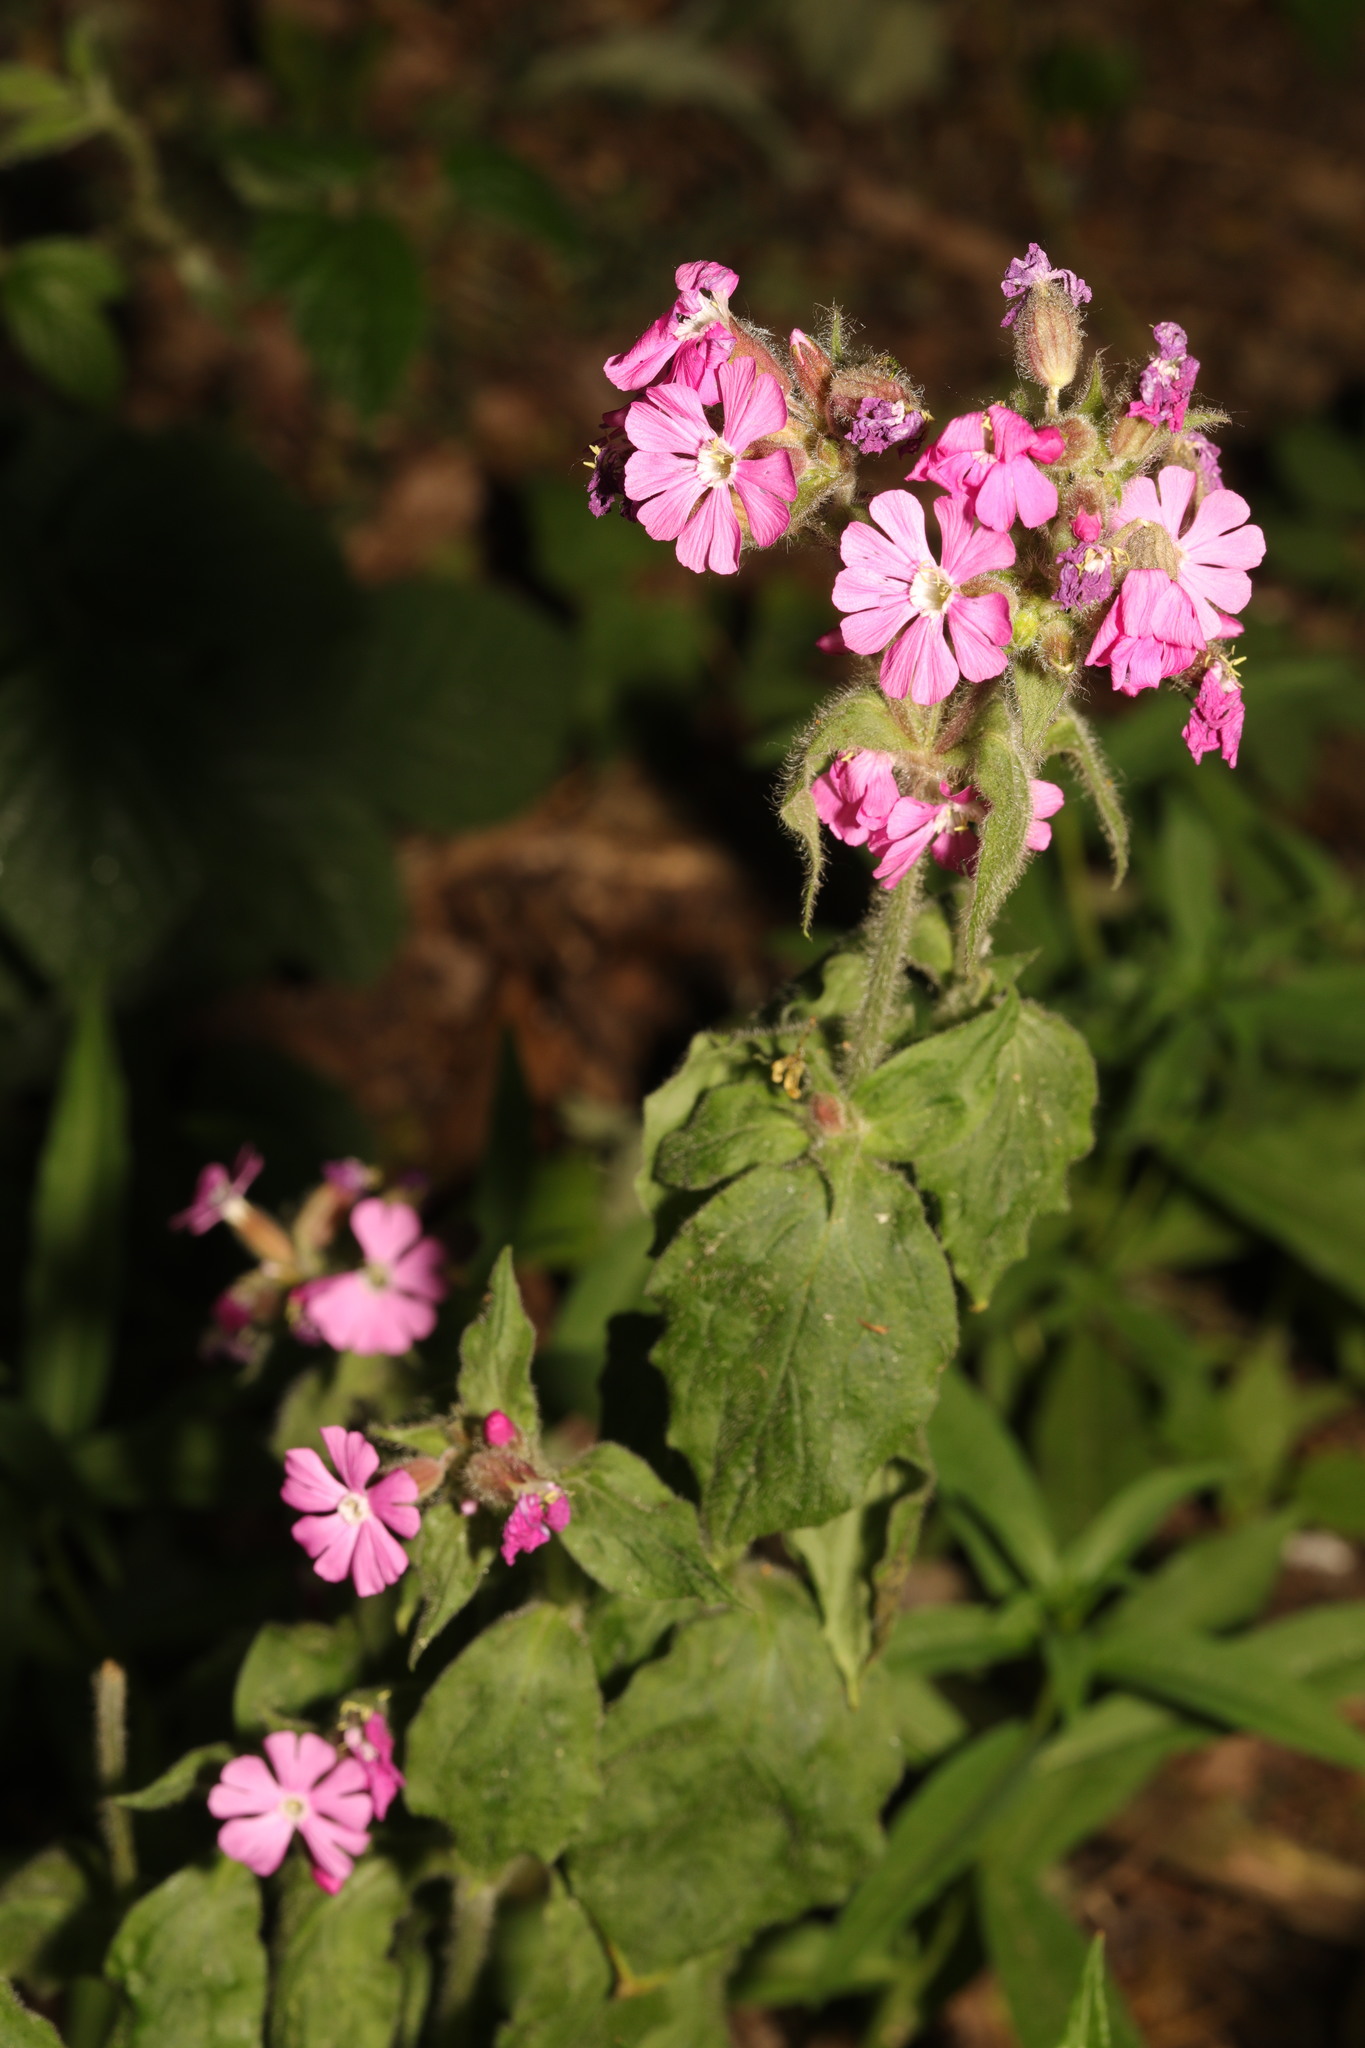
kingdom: Plantae
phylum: Tracheophyta
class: Magnoliopsida
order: Caryophyllales
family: Caryophyllaceae
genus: Silene
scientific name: Silene dioica
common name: Red campion
